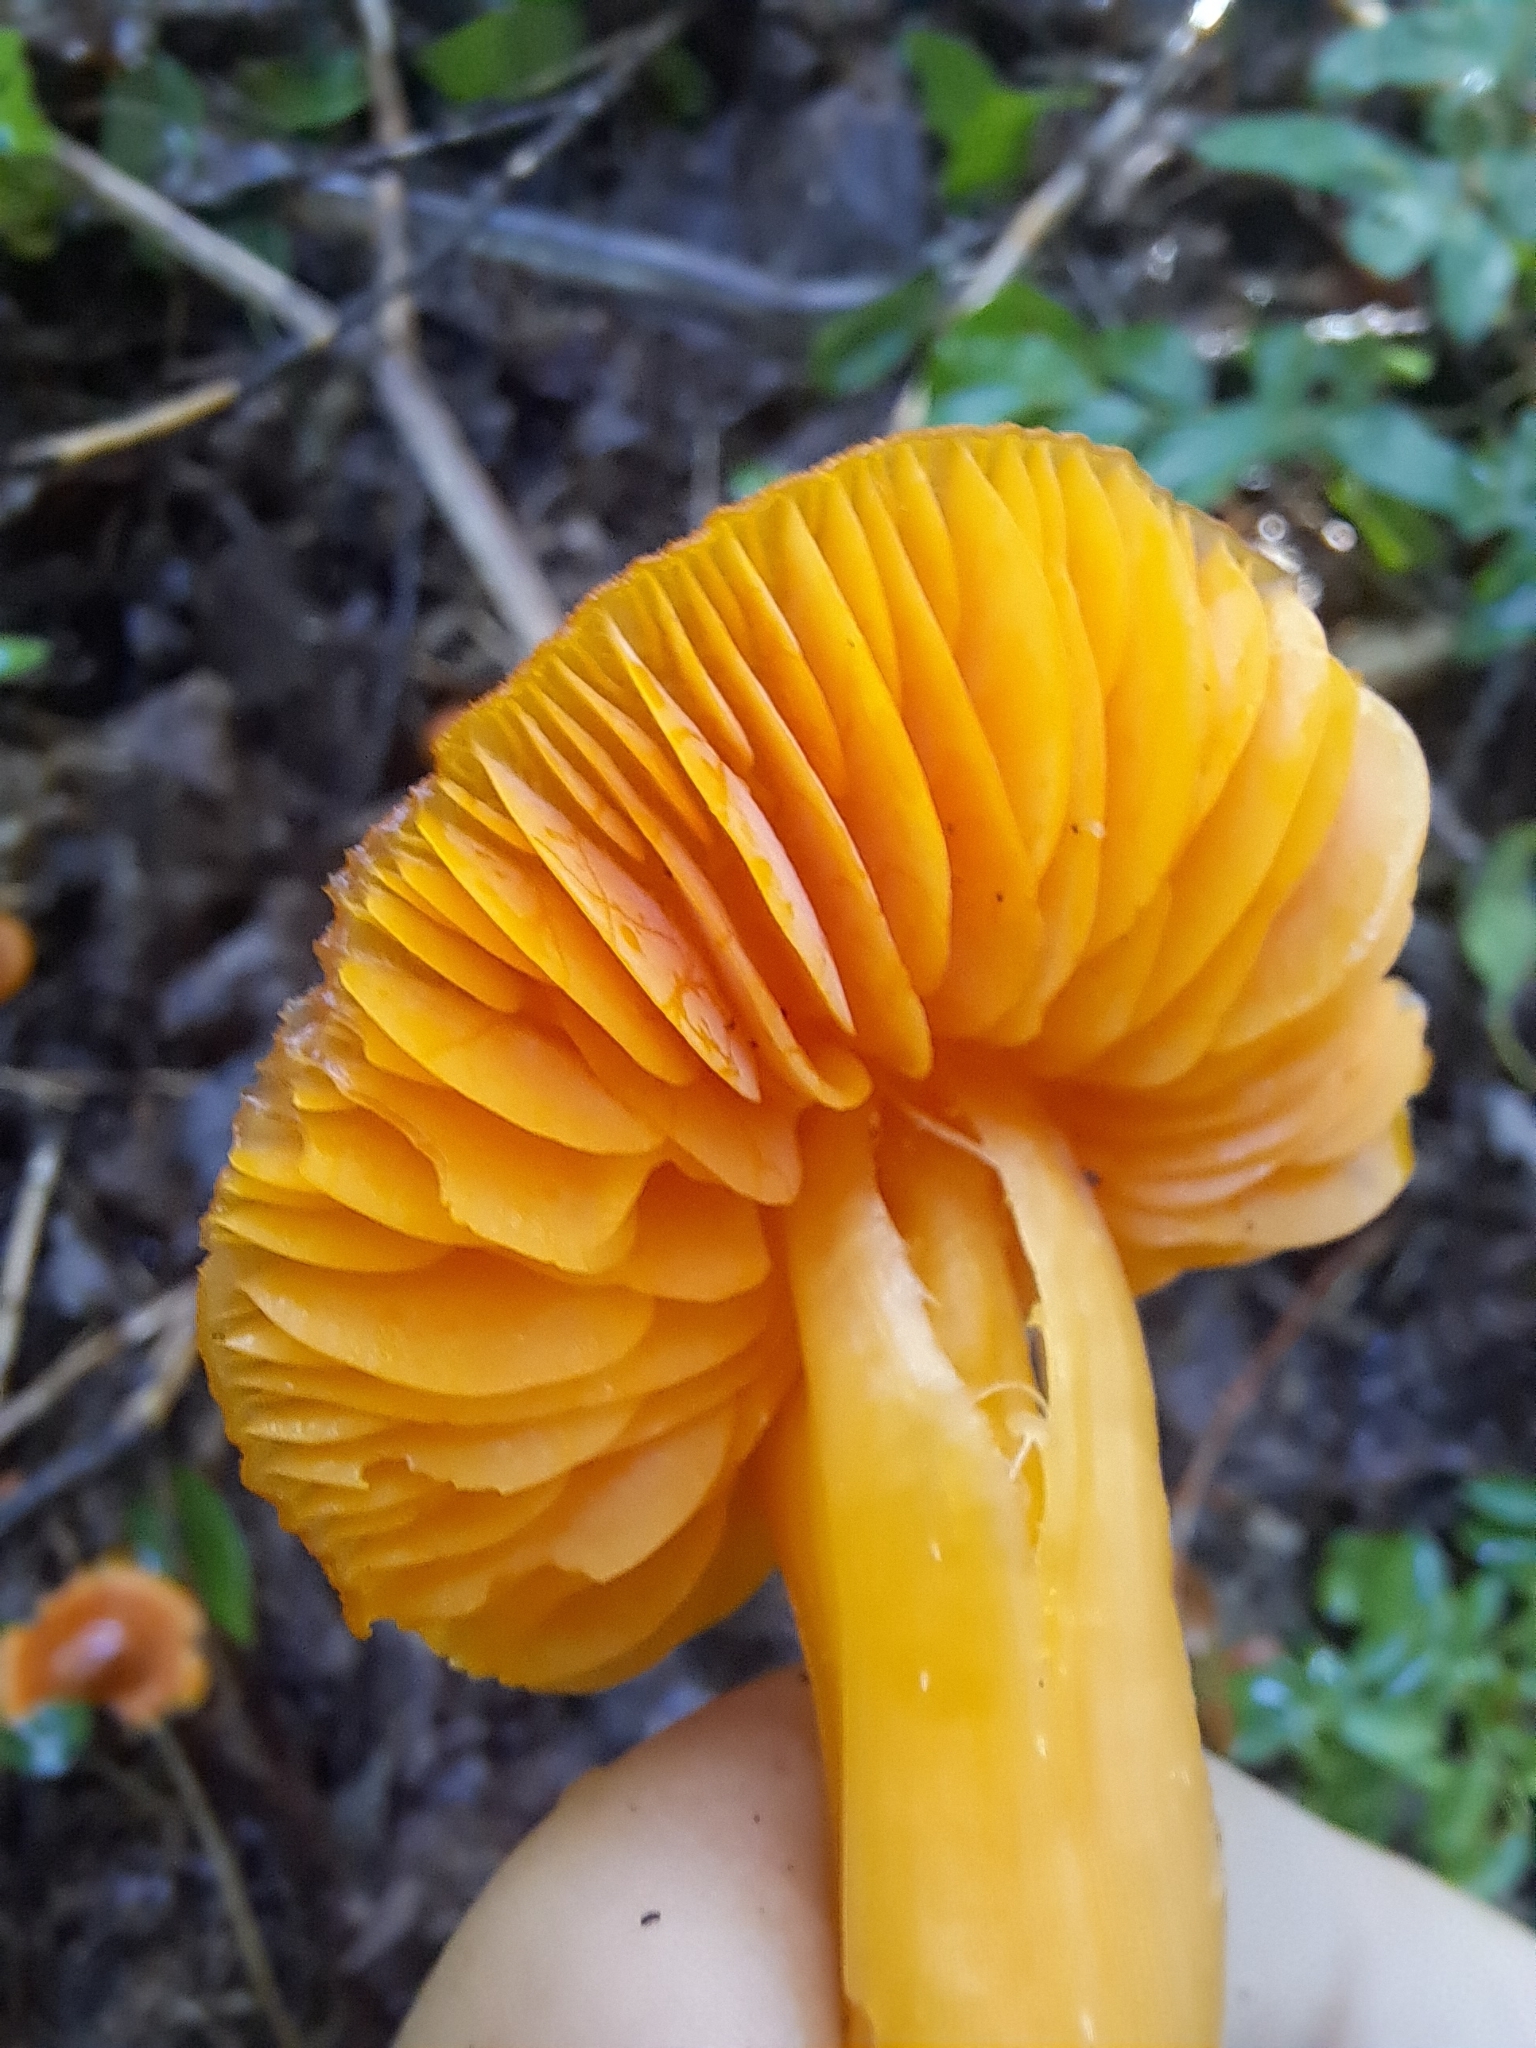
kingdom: Fungi
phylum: Basidiomycota
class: Agaricomycetes
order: Agaricales
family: Hygrophoraceae
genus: Humidicutis
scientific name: Humidicutis marginata
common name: Orange gilled waxcap
